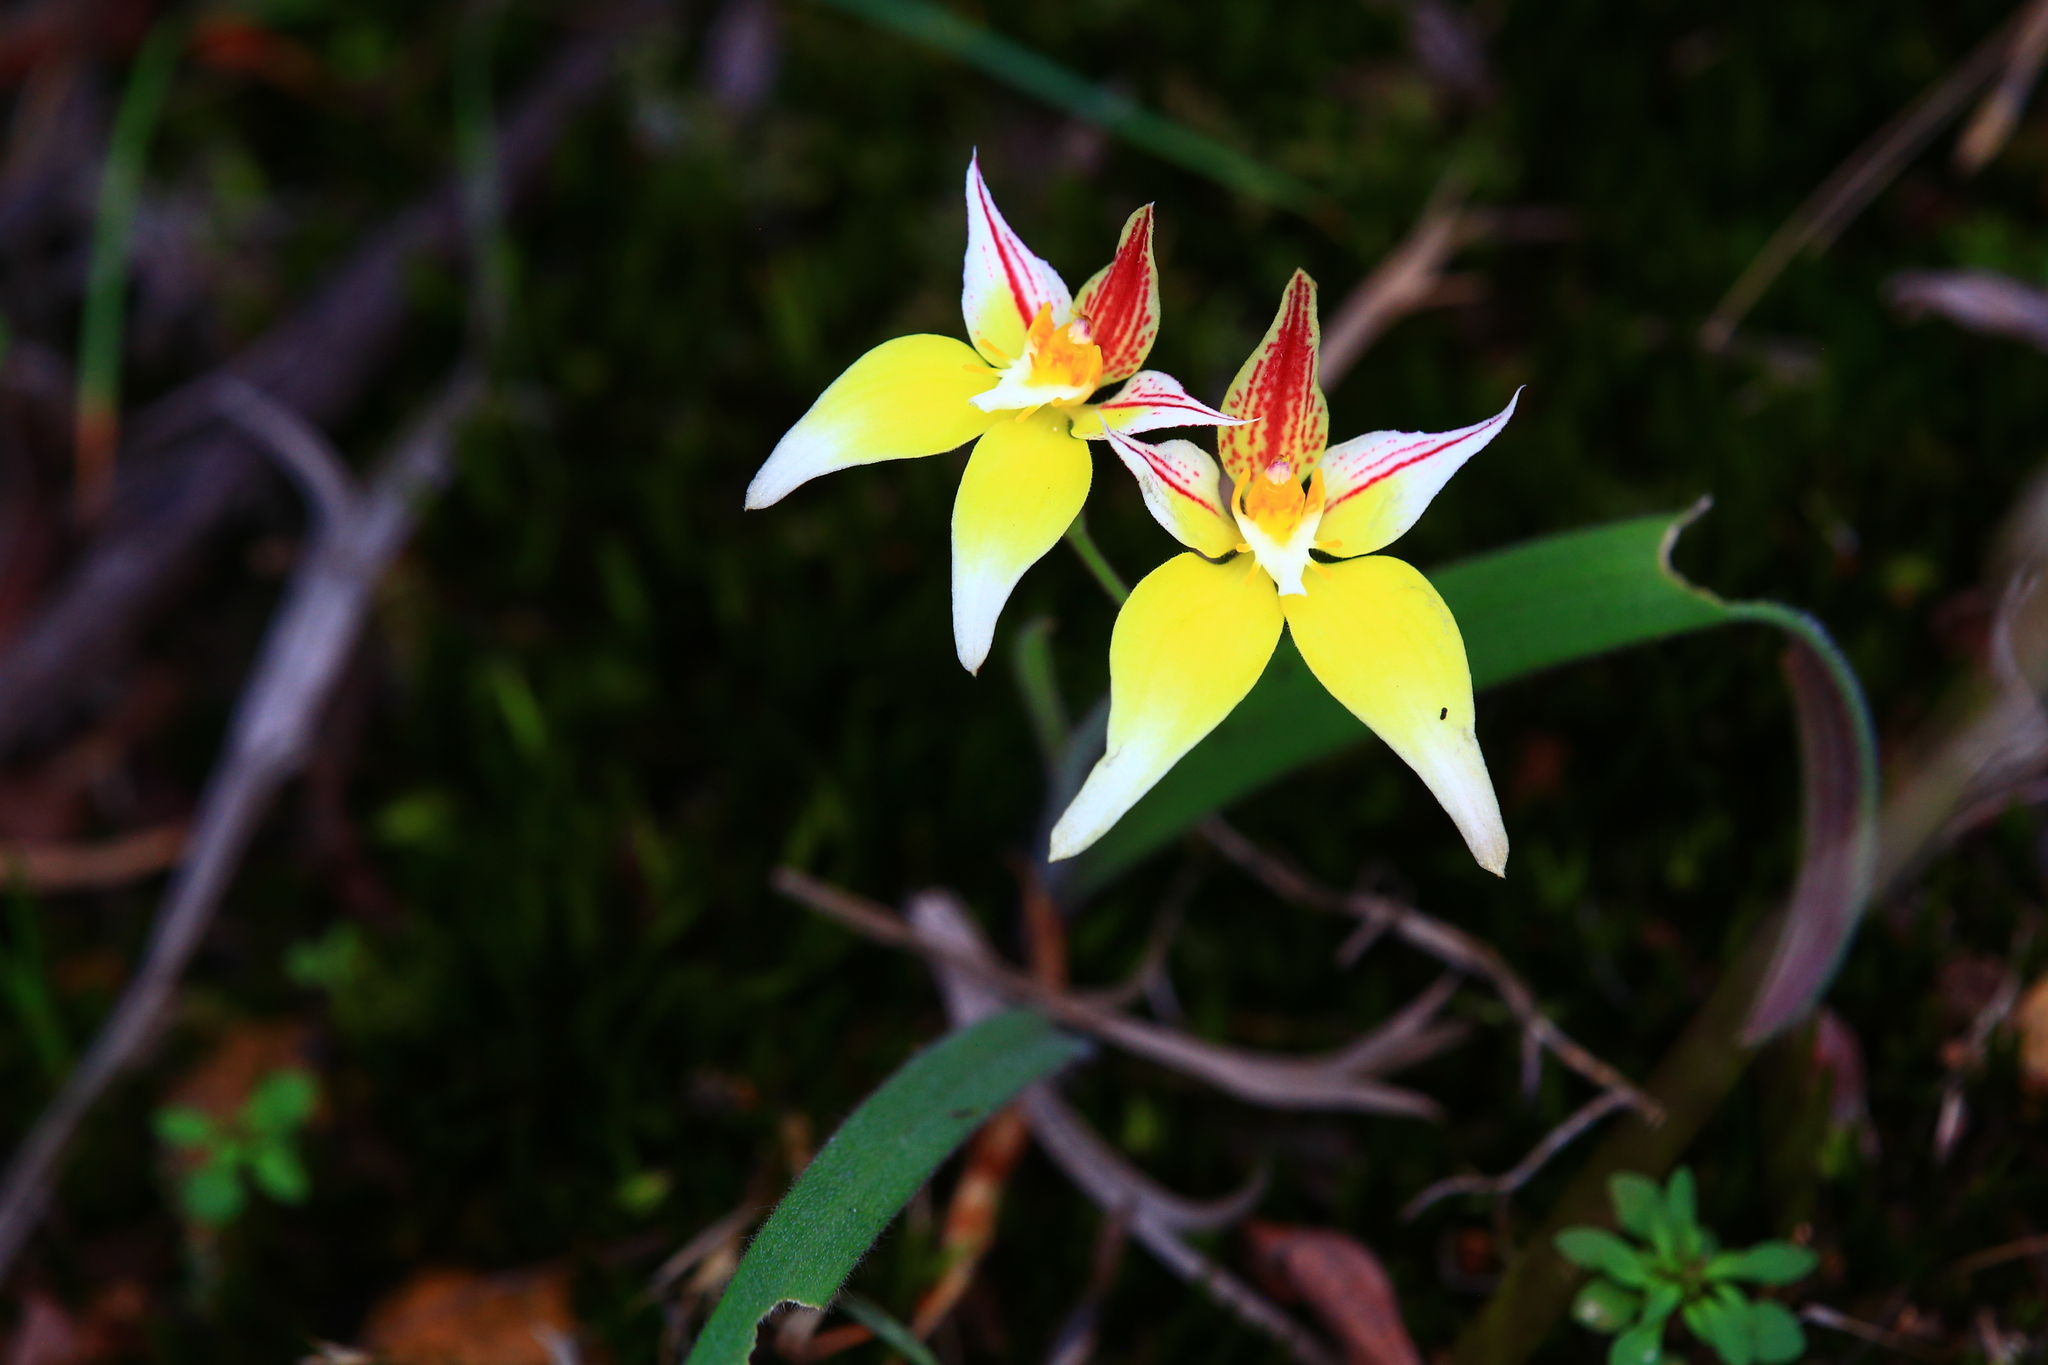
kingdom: Plantae
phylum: Tracheophyta
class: Liliopsida
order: Asparagales
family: Orchidaceae
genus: Caladenia
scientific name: Caladenia flava
